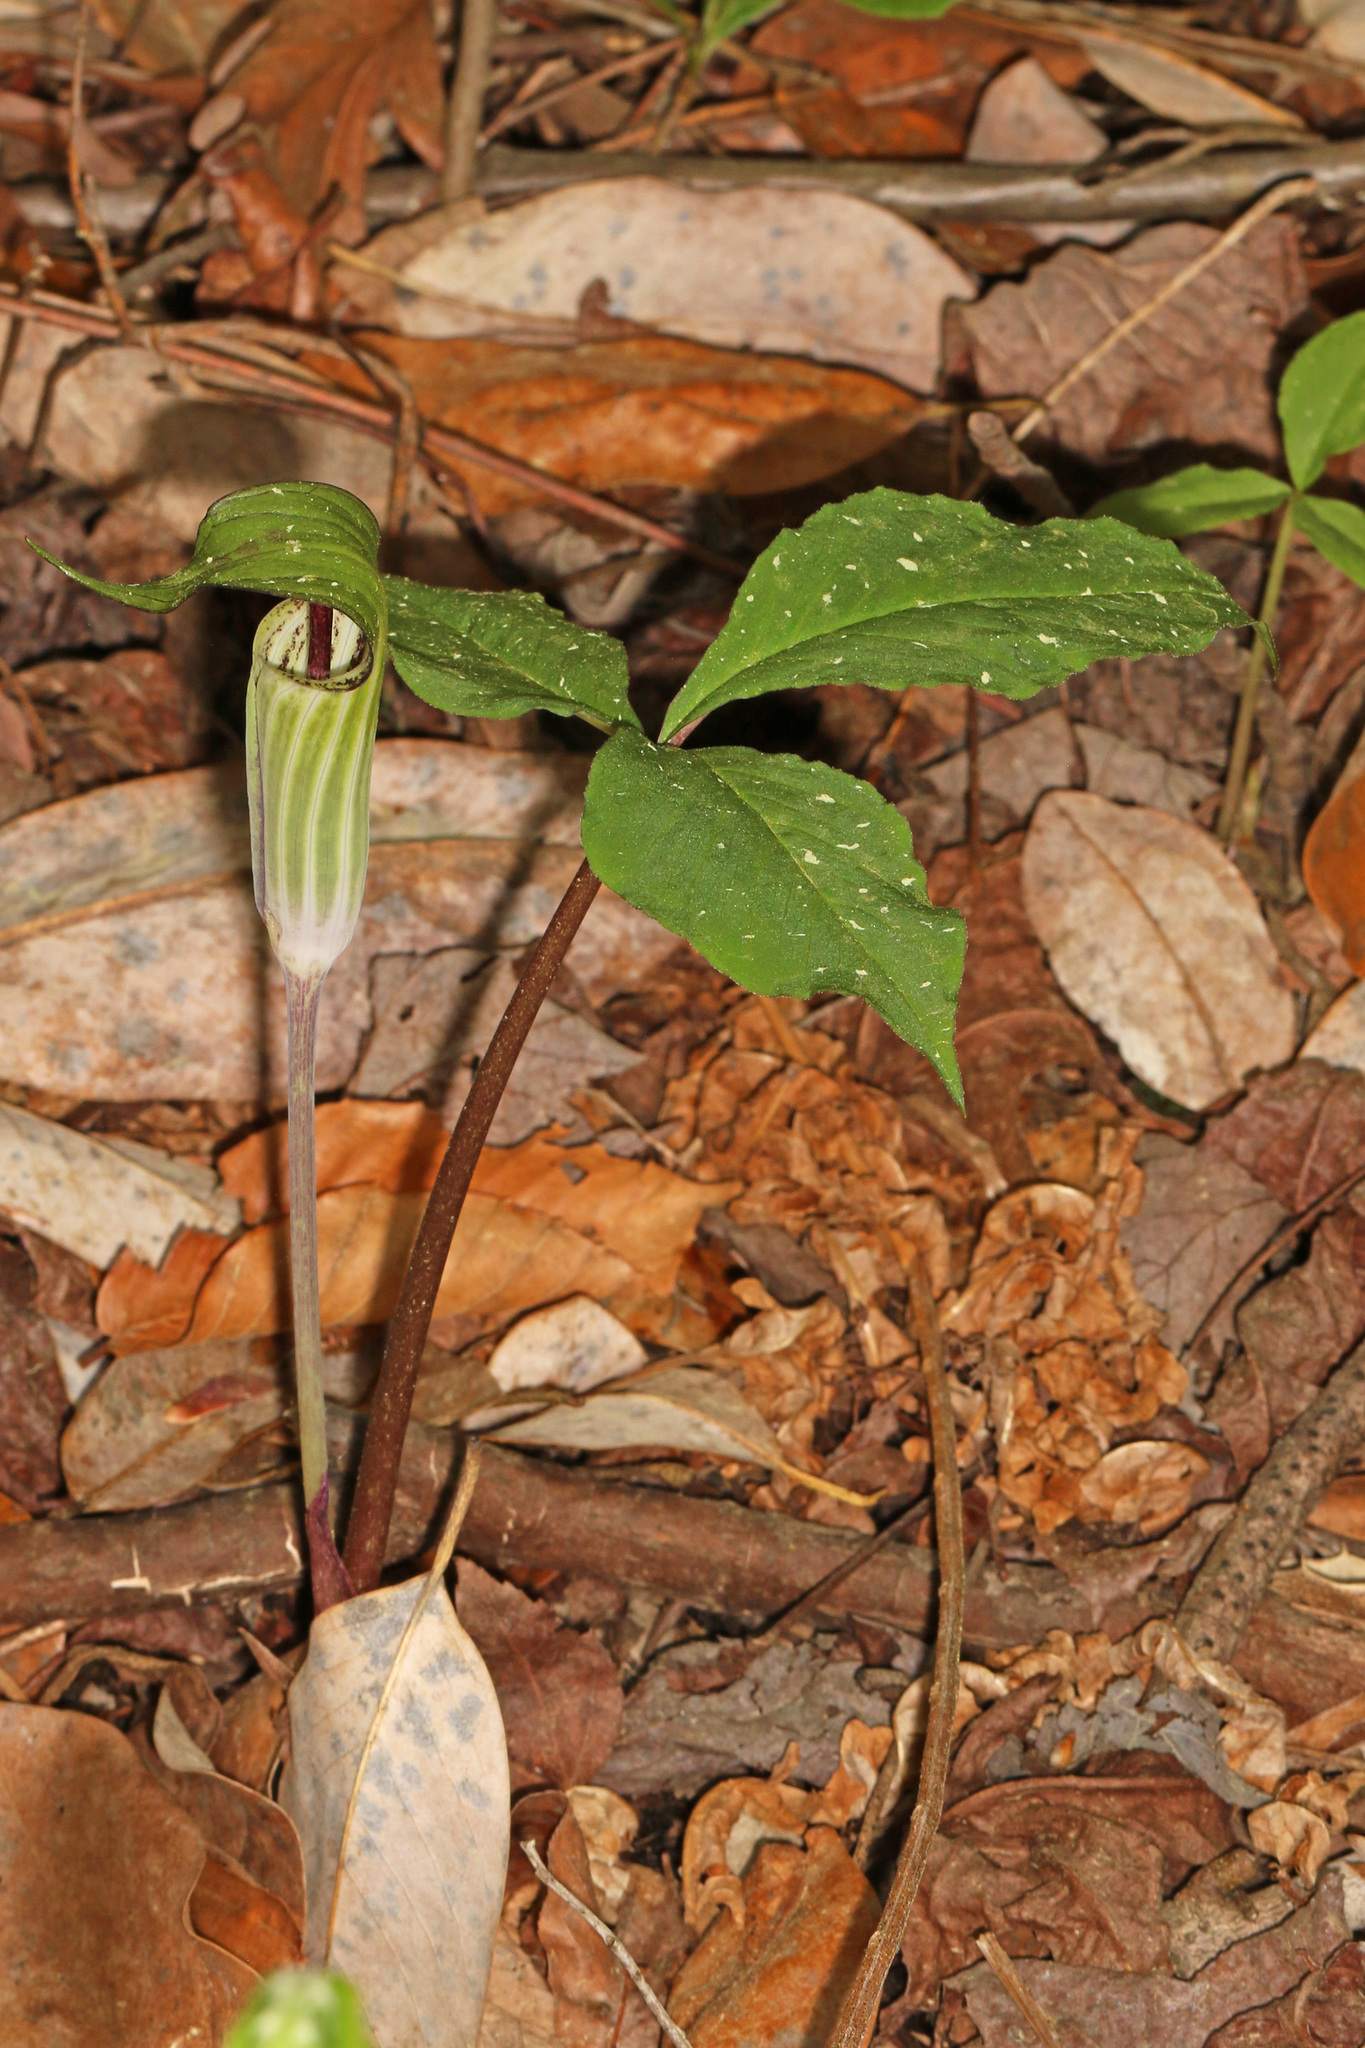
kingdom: Plantae
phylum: Tracheophyta
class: Liliopsida
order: Alismatales
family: Araceae
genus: Arisaema
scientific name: Arisaema triphyllum
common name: Jack-in-the-pulpit
